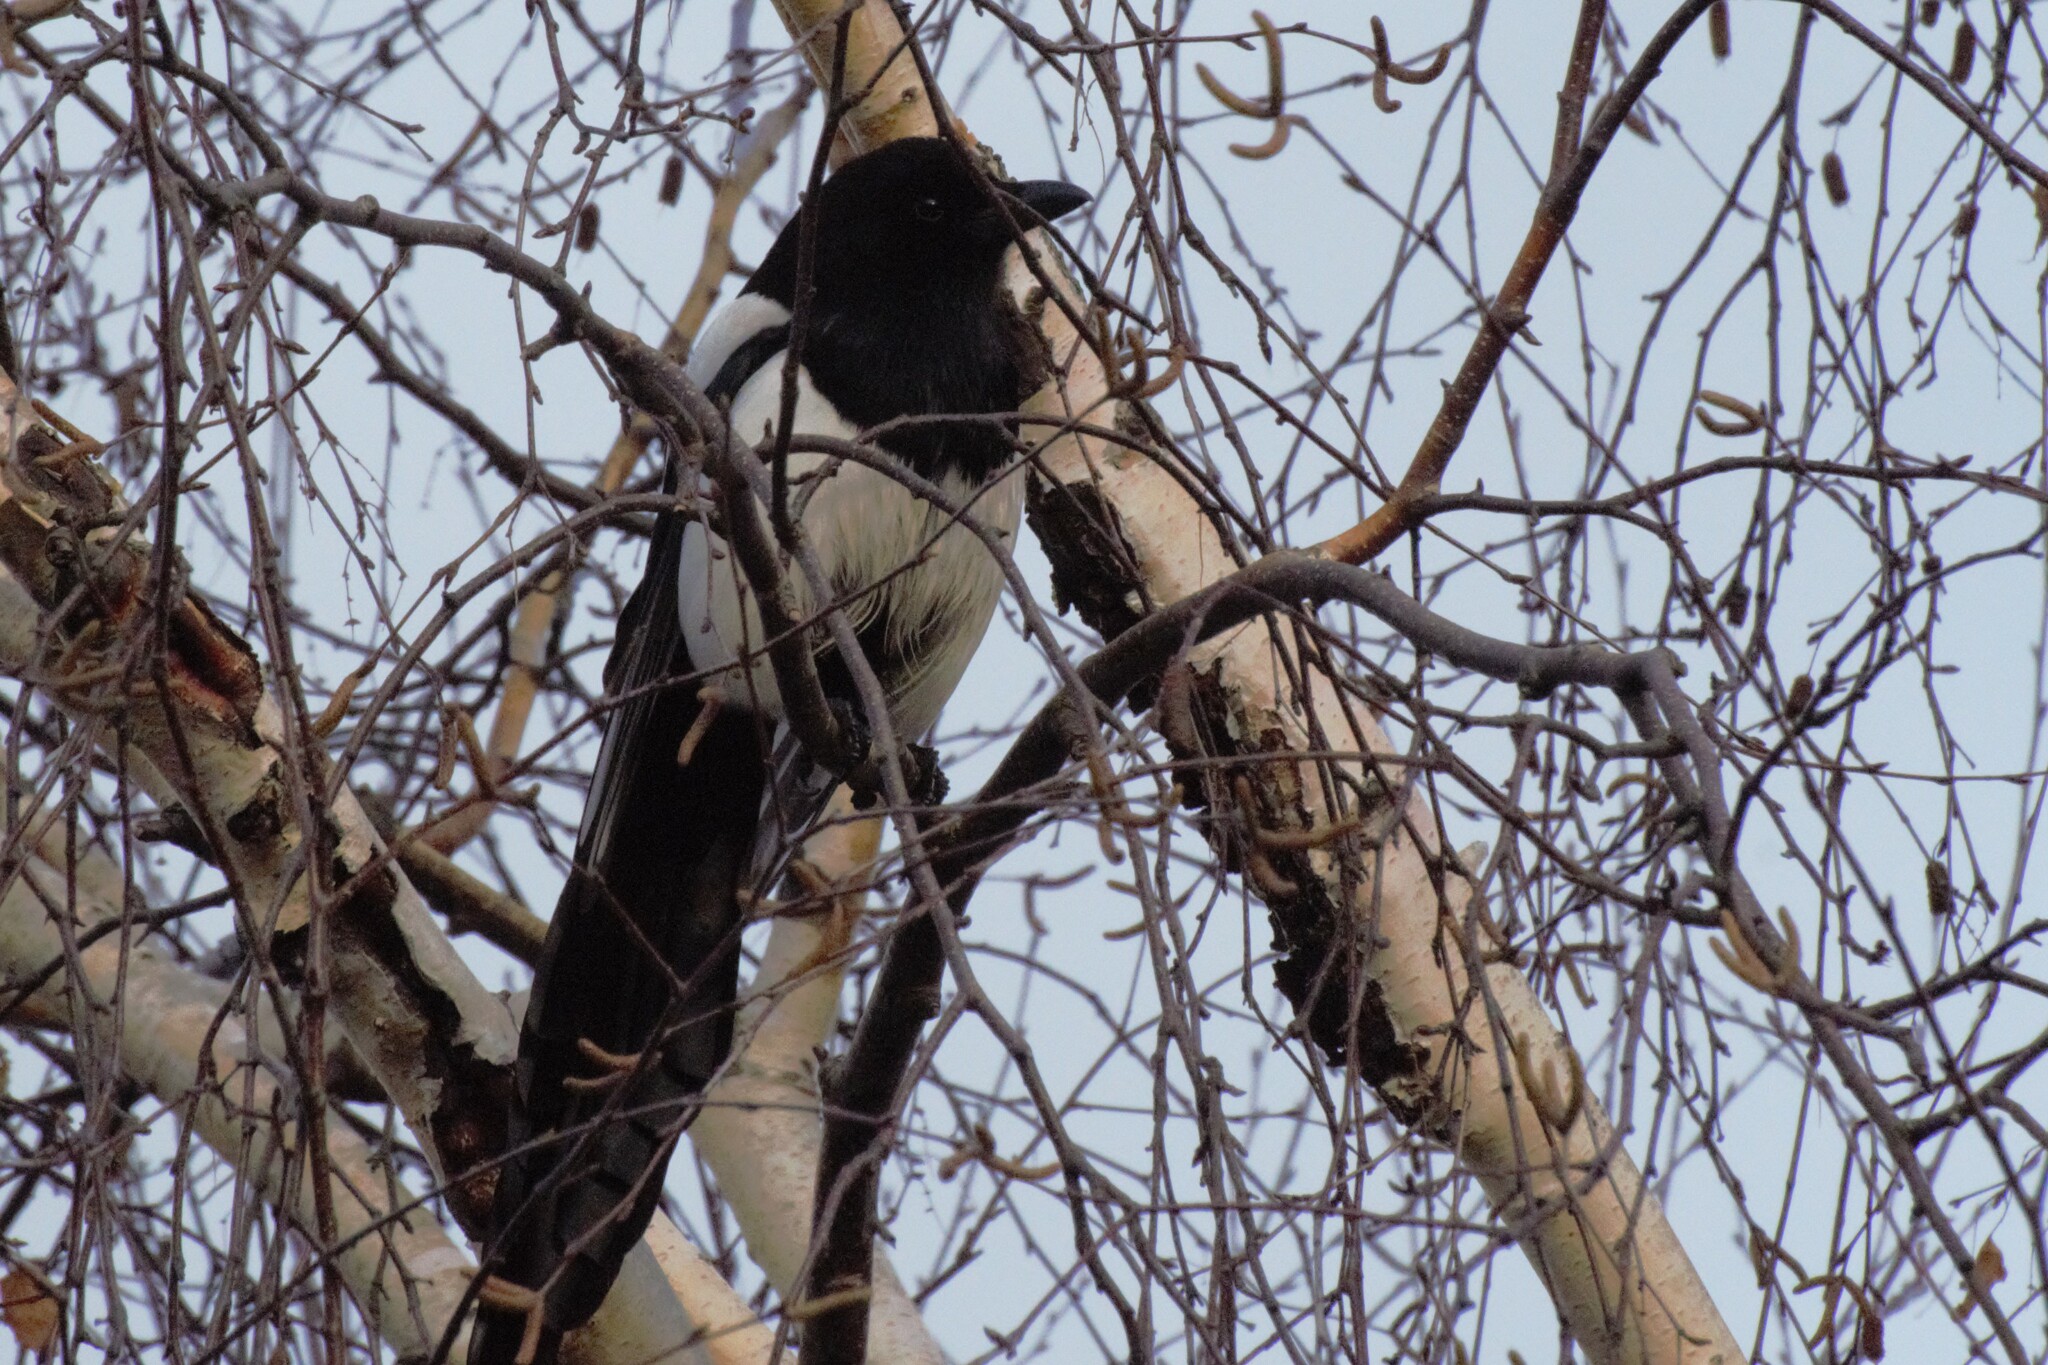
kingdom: Animalia
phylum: Chordata
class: Aves
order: Passeriformes
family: Corvidae
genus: Pica
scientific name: Pica pica
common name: Eurasian magpie
